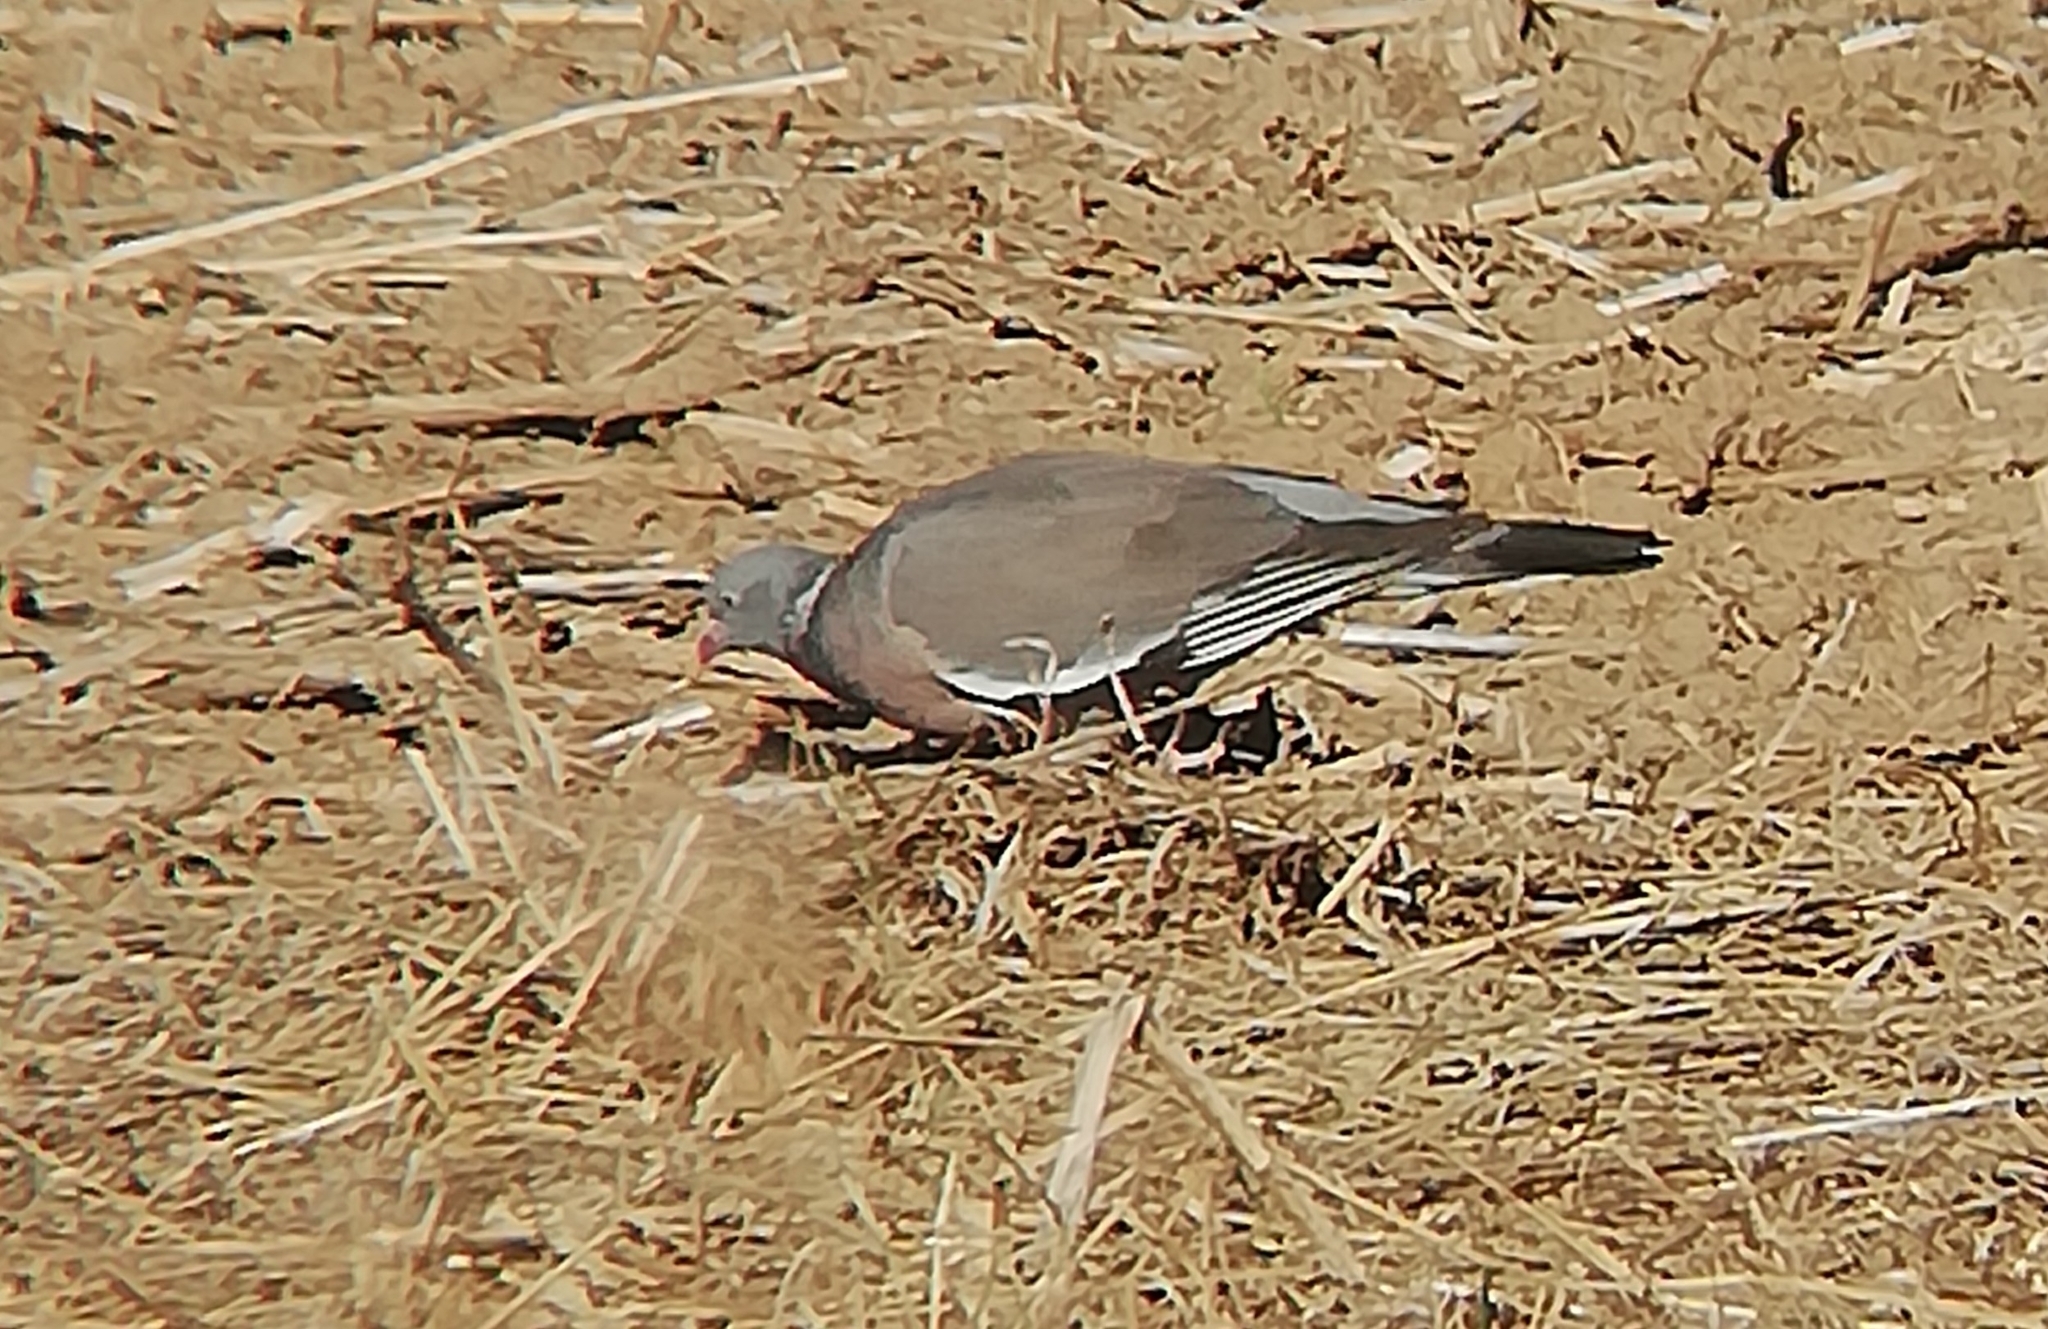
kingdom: Animalia
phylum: Chordata
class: Aves
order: Columbiformes
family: Columbidae
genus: Columba
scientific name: Columba palumbus
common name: Common wood pigeon
